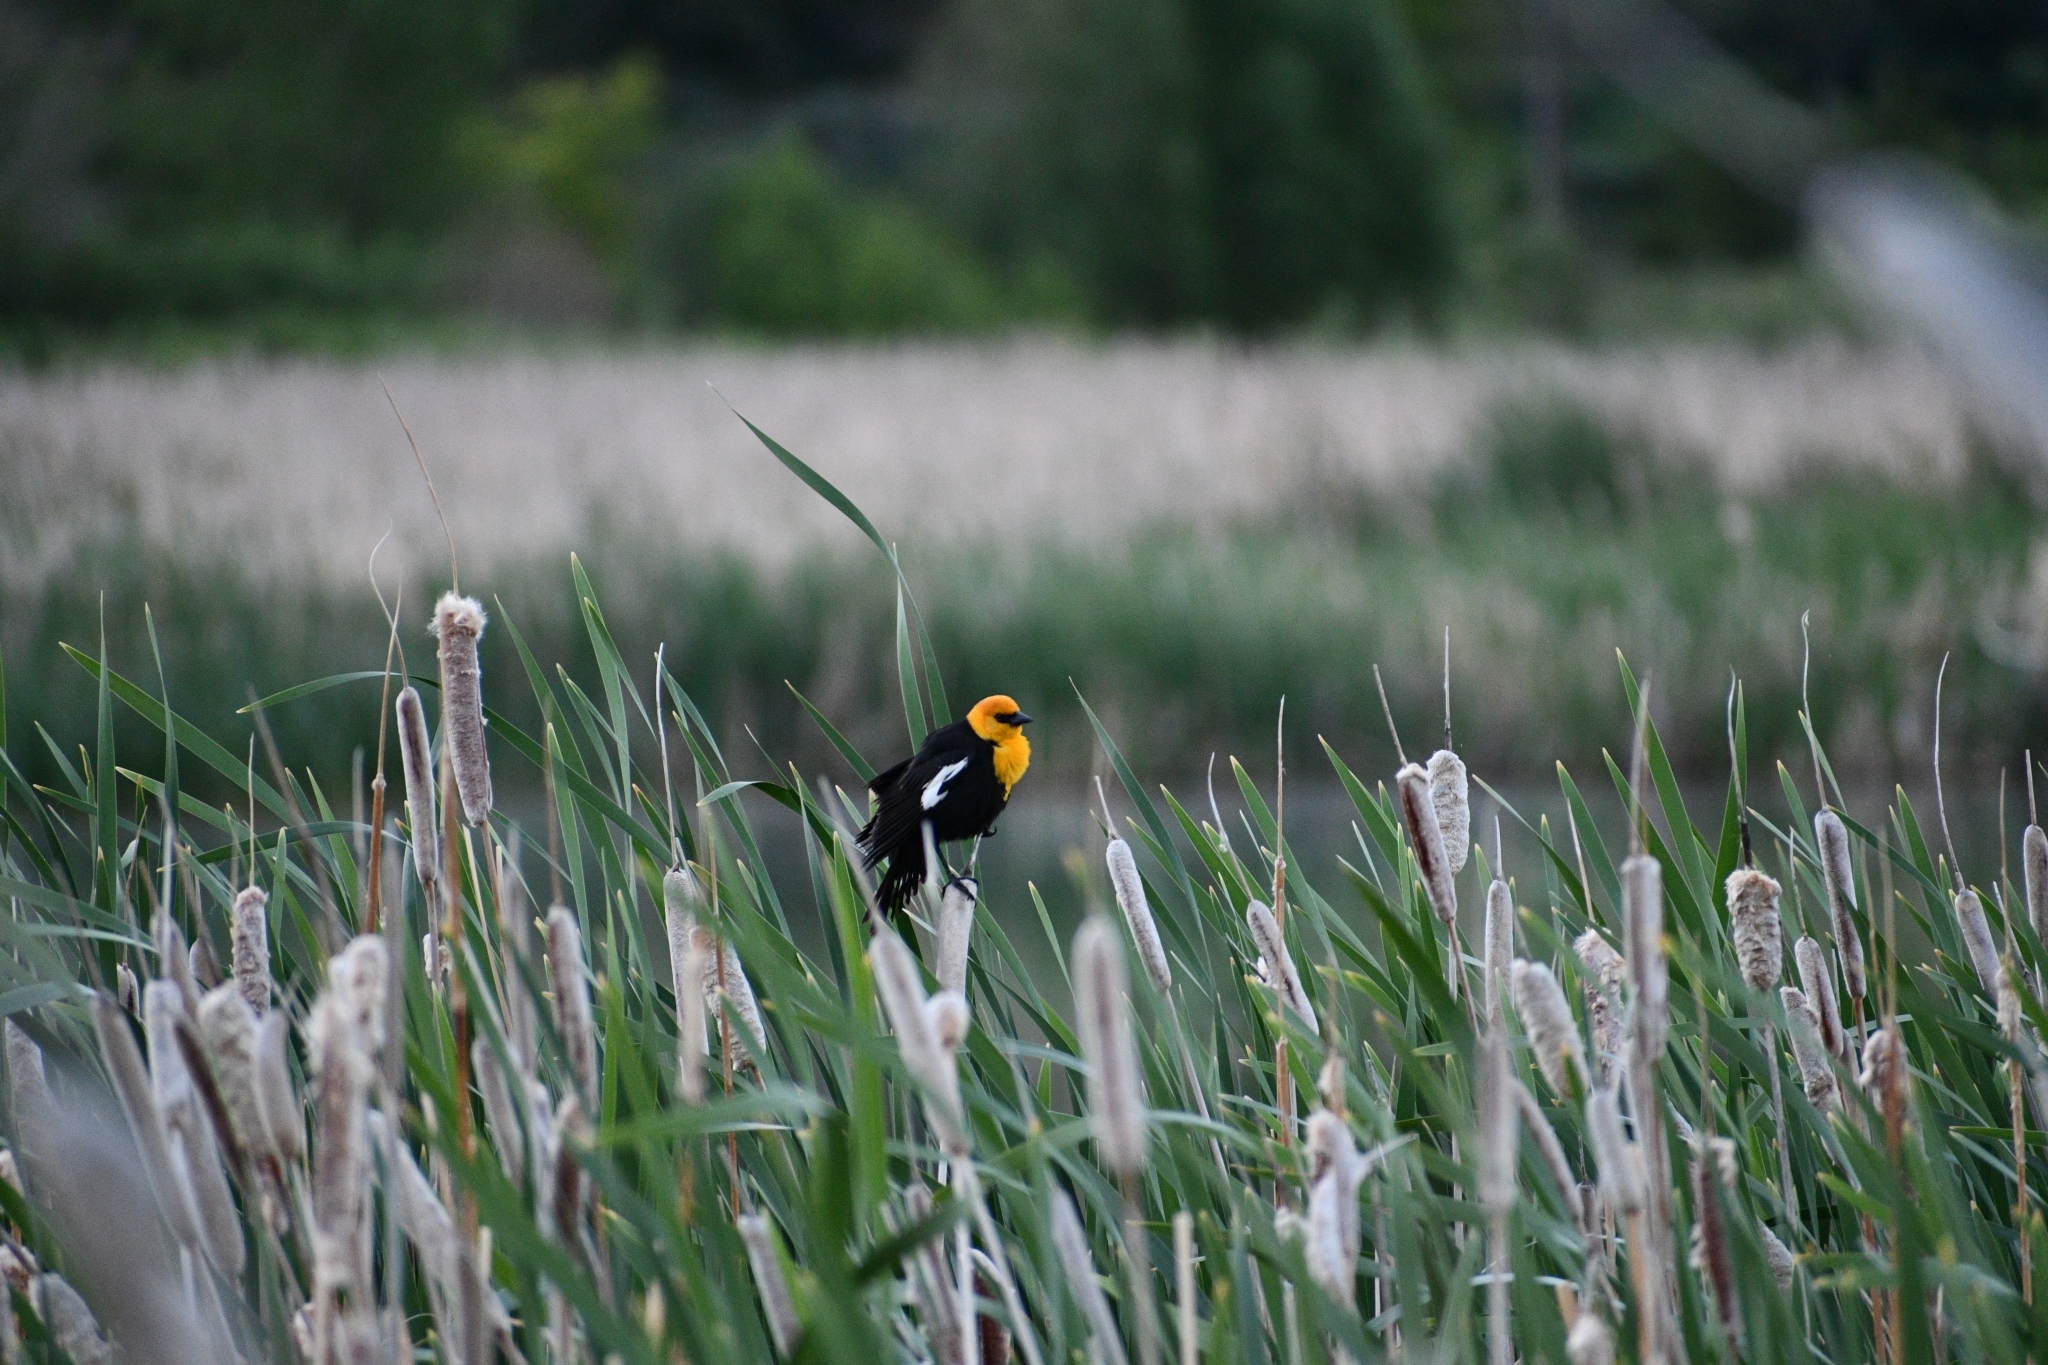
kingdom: Animalia
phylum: Chordata
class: Aves
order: Passeriformes
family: Icteridae
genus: Xanthocephalus
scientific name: Xanthocephalus xanthocephalus
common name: Yellow-headed blackbird
